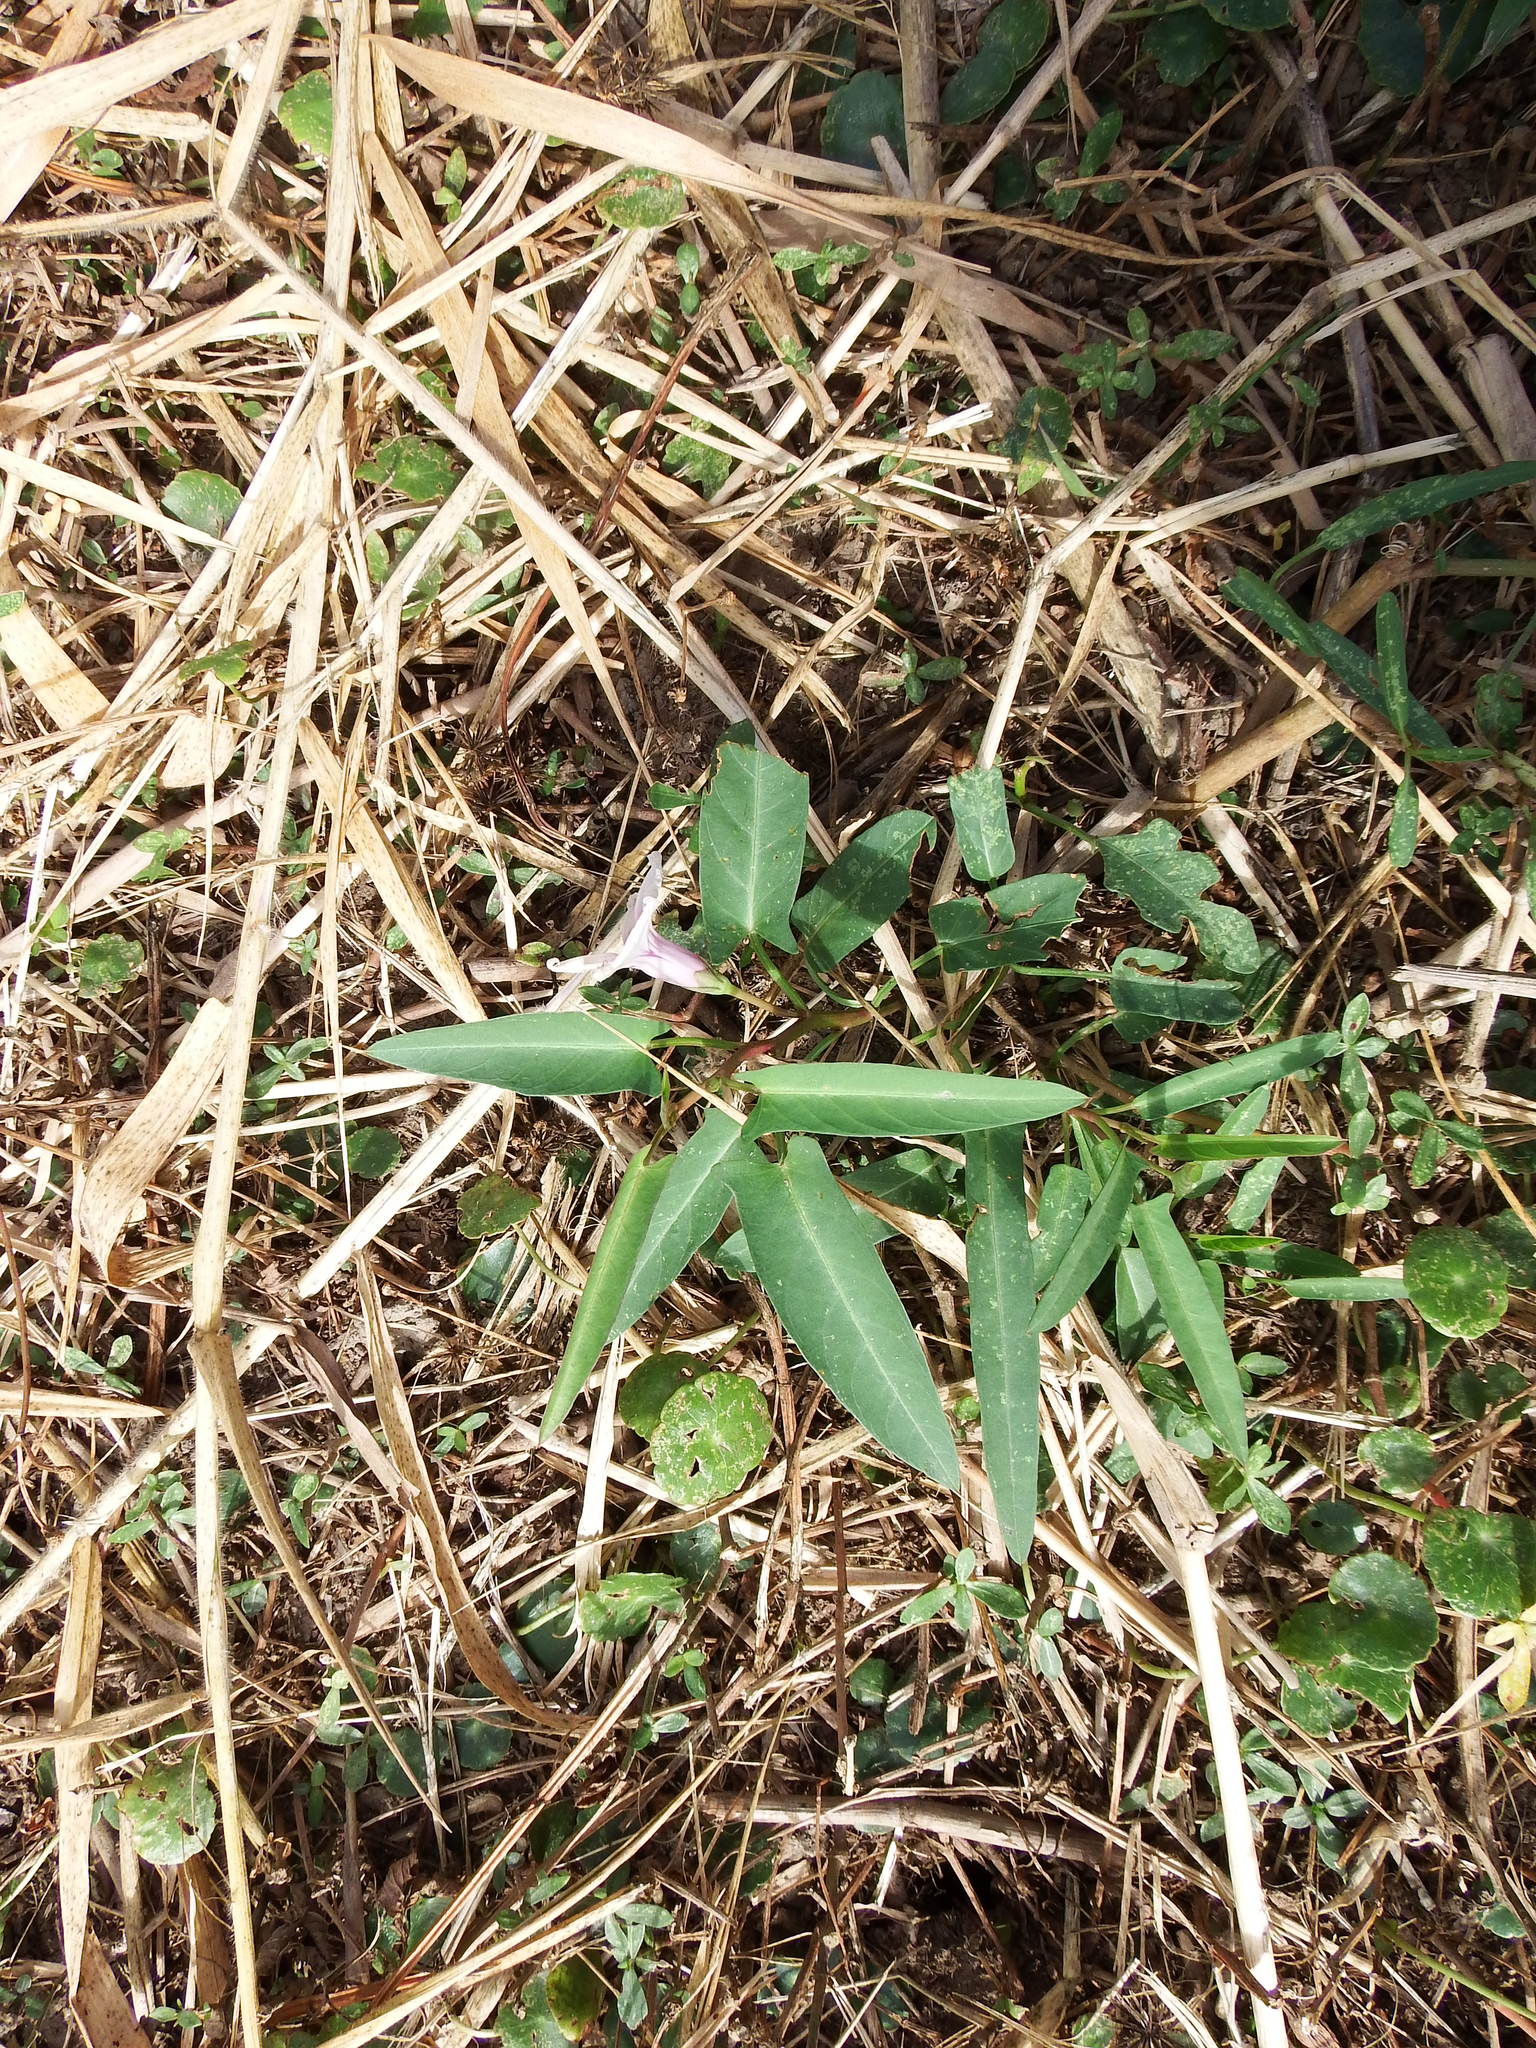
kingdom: Plantae
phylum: Tracheophyta
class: Magnoliopsida
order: Solanales
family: Convolvulaceae
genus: Ipomoea
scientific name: Ipomoea aquatica
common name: Swamp morning-glory
